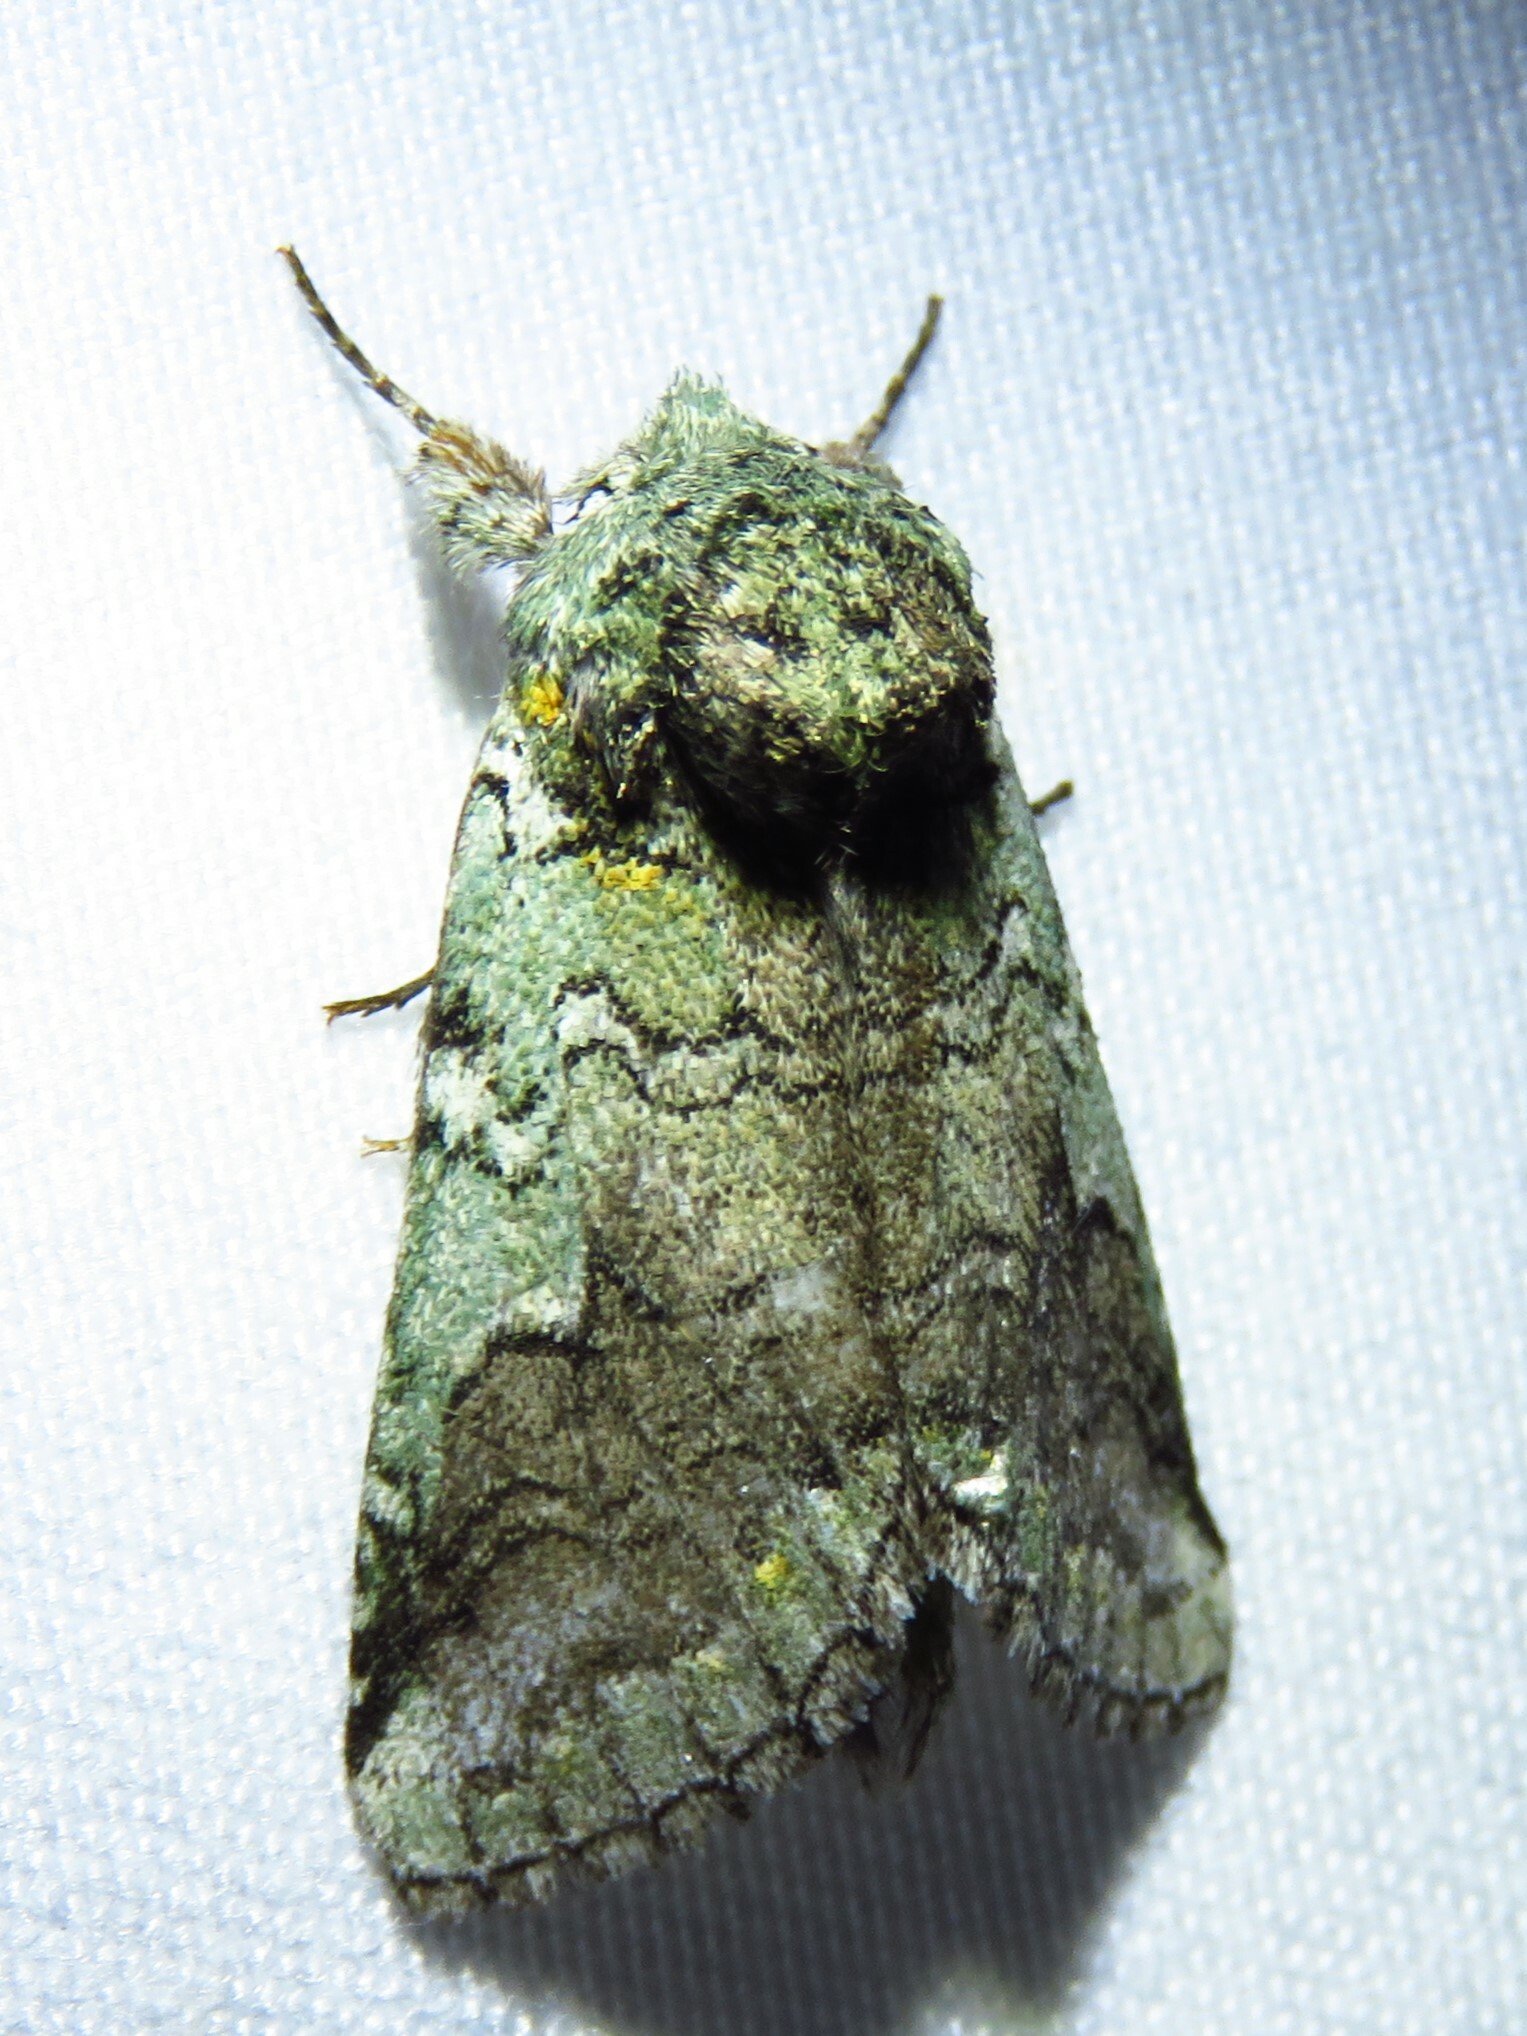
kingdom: Animalia
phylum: Arthropoda
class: Insecta
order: Lepidoptera
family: Notodontidae
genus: Litodonta
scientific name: Litodonta hydromeli
